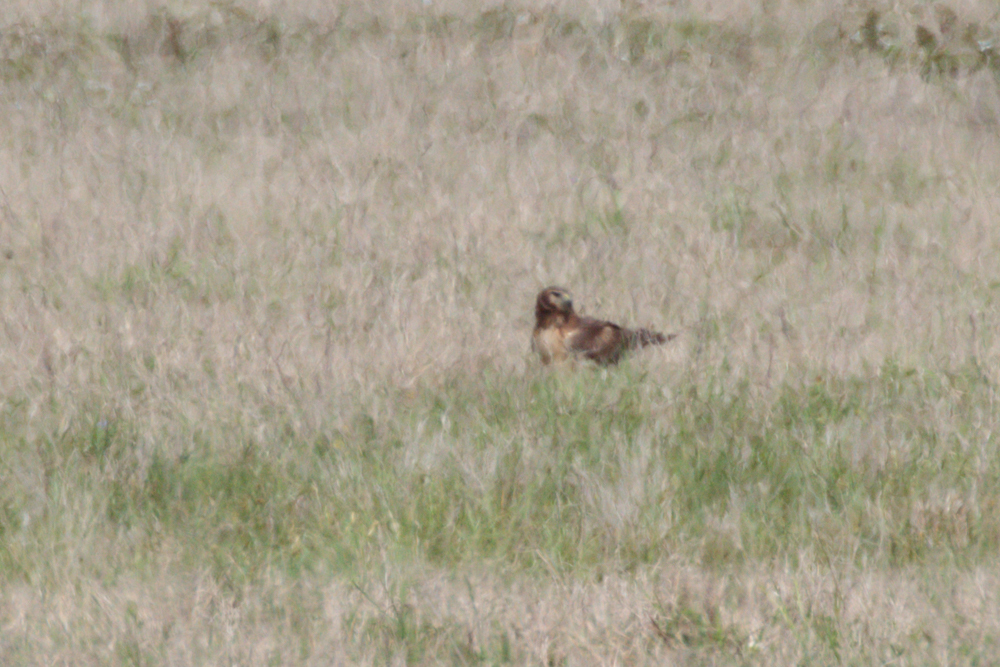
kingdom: Animalia
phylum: Chordata
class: Aves
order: Accipitriformes
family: Accipitridae
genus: Circus
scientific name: Circus cyaneus
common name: Hen harrier
